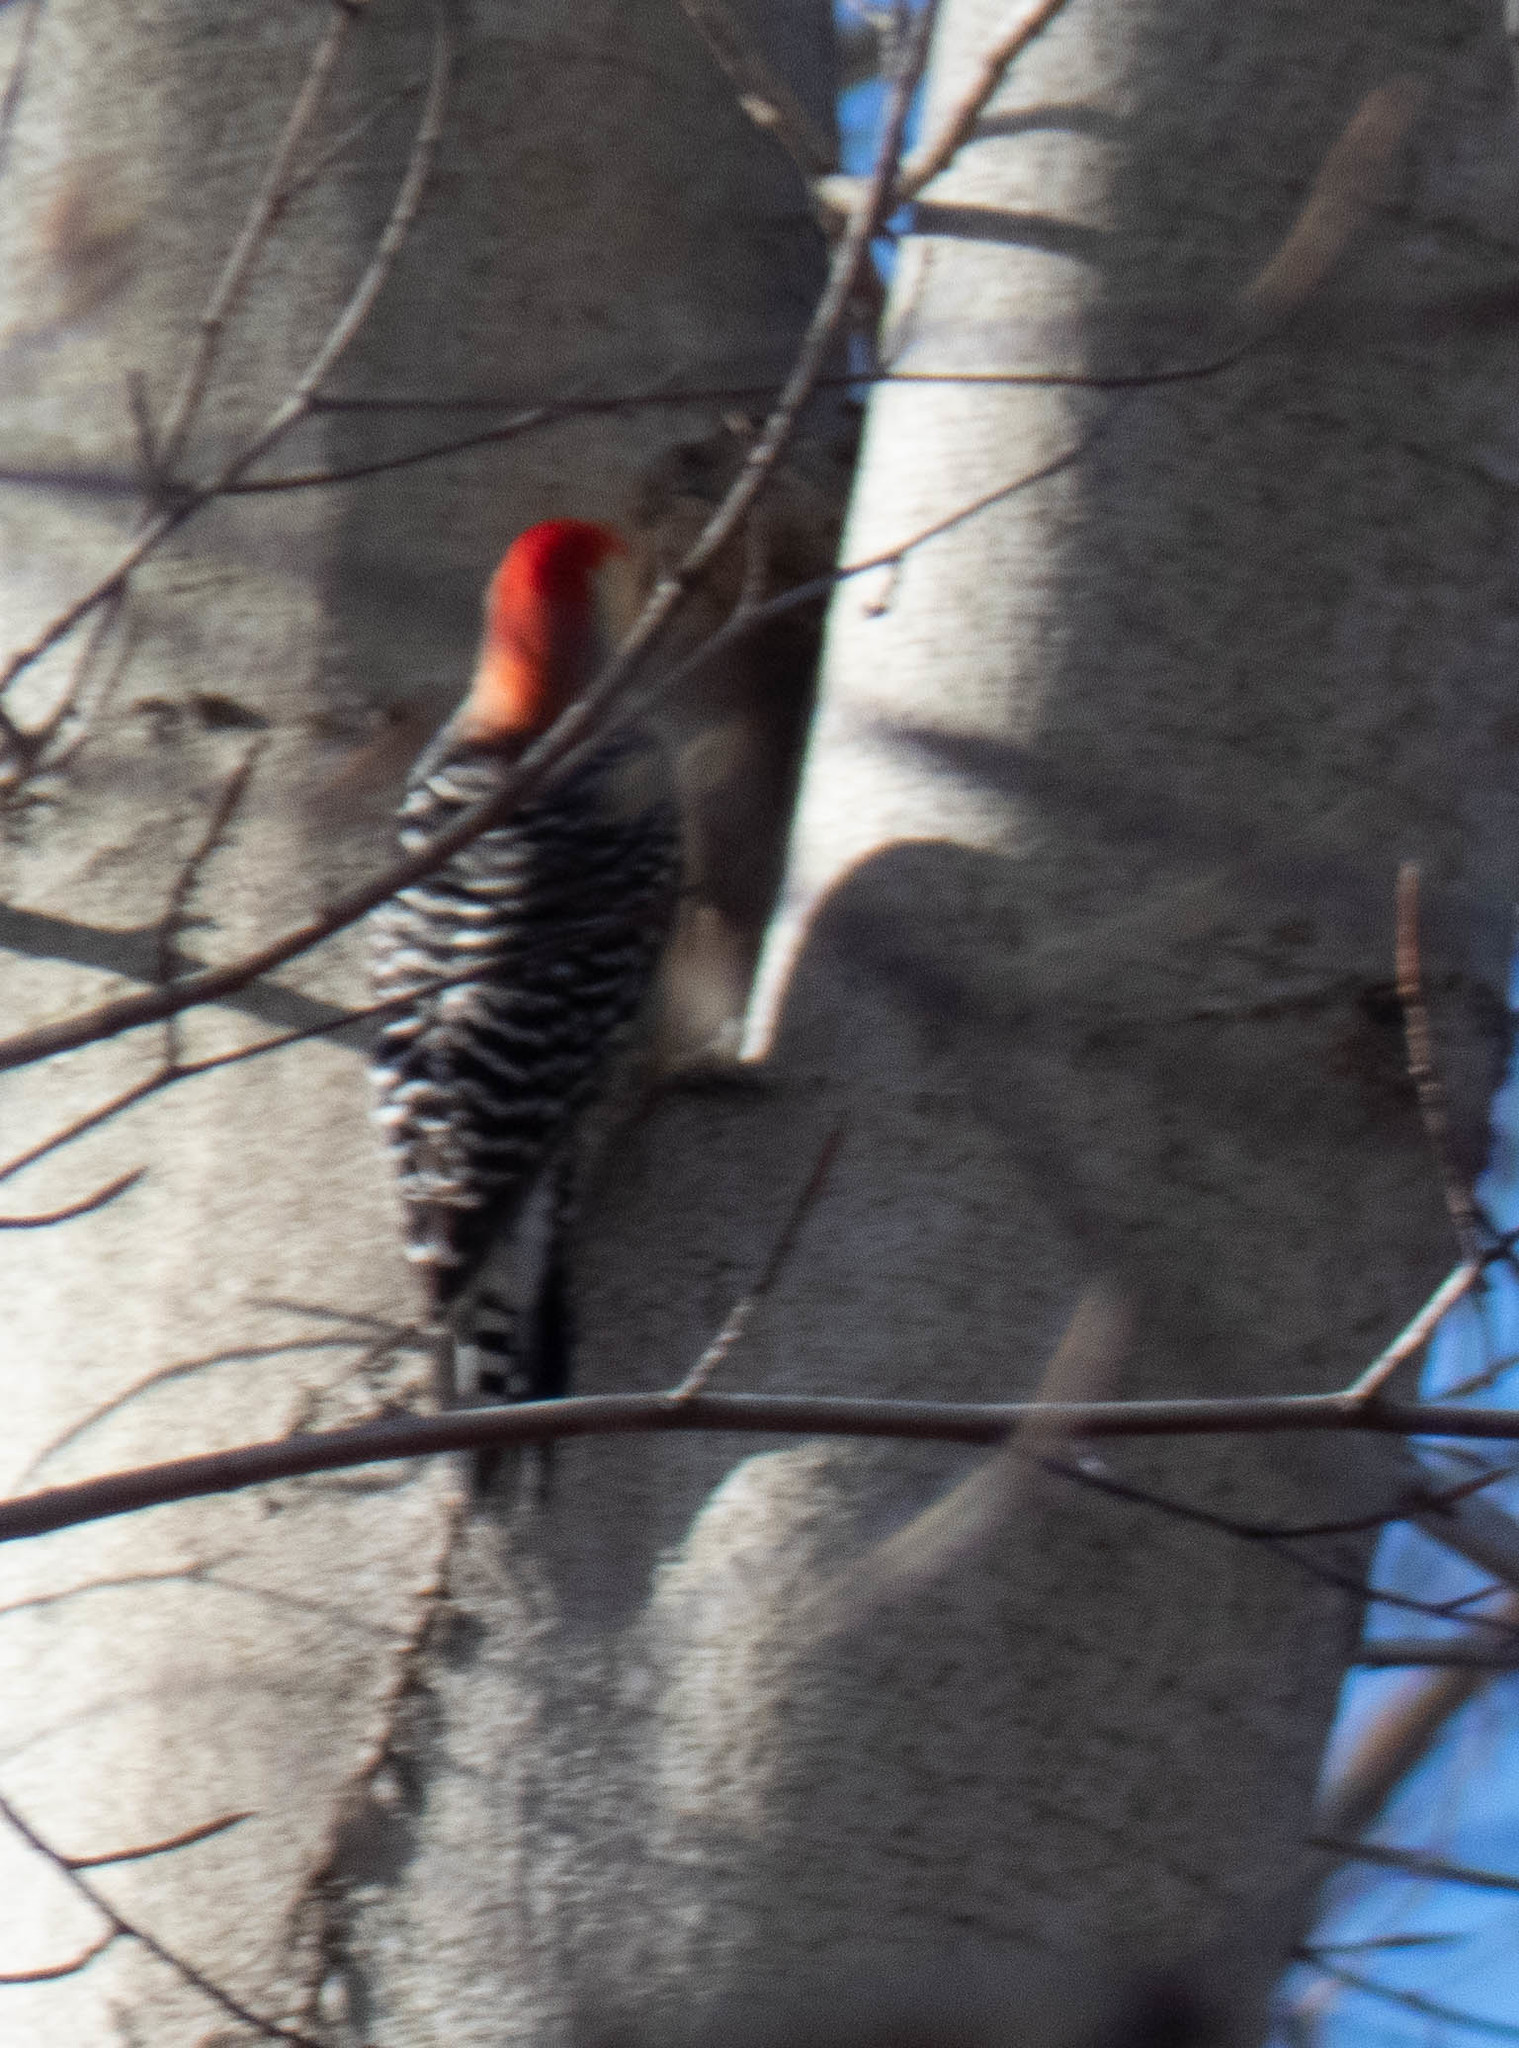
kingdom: Animalia
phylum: Chordata
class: Aves
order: Piciformes
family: Picidae
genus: Melanerpes
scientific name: Melanerpes carolinus
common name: Red-bellied woodpecker
